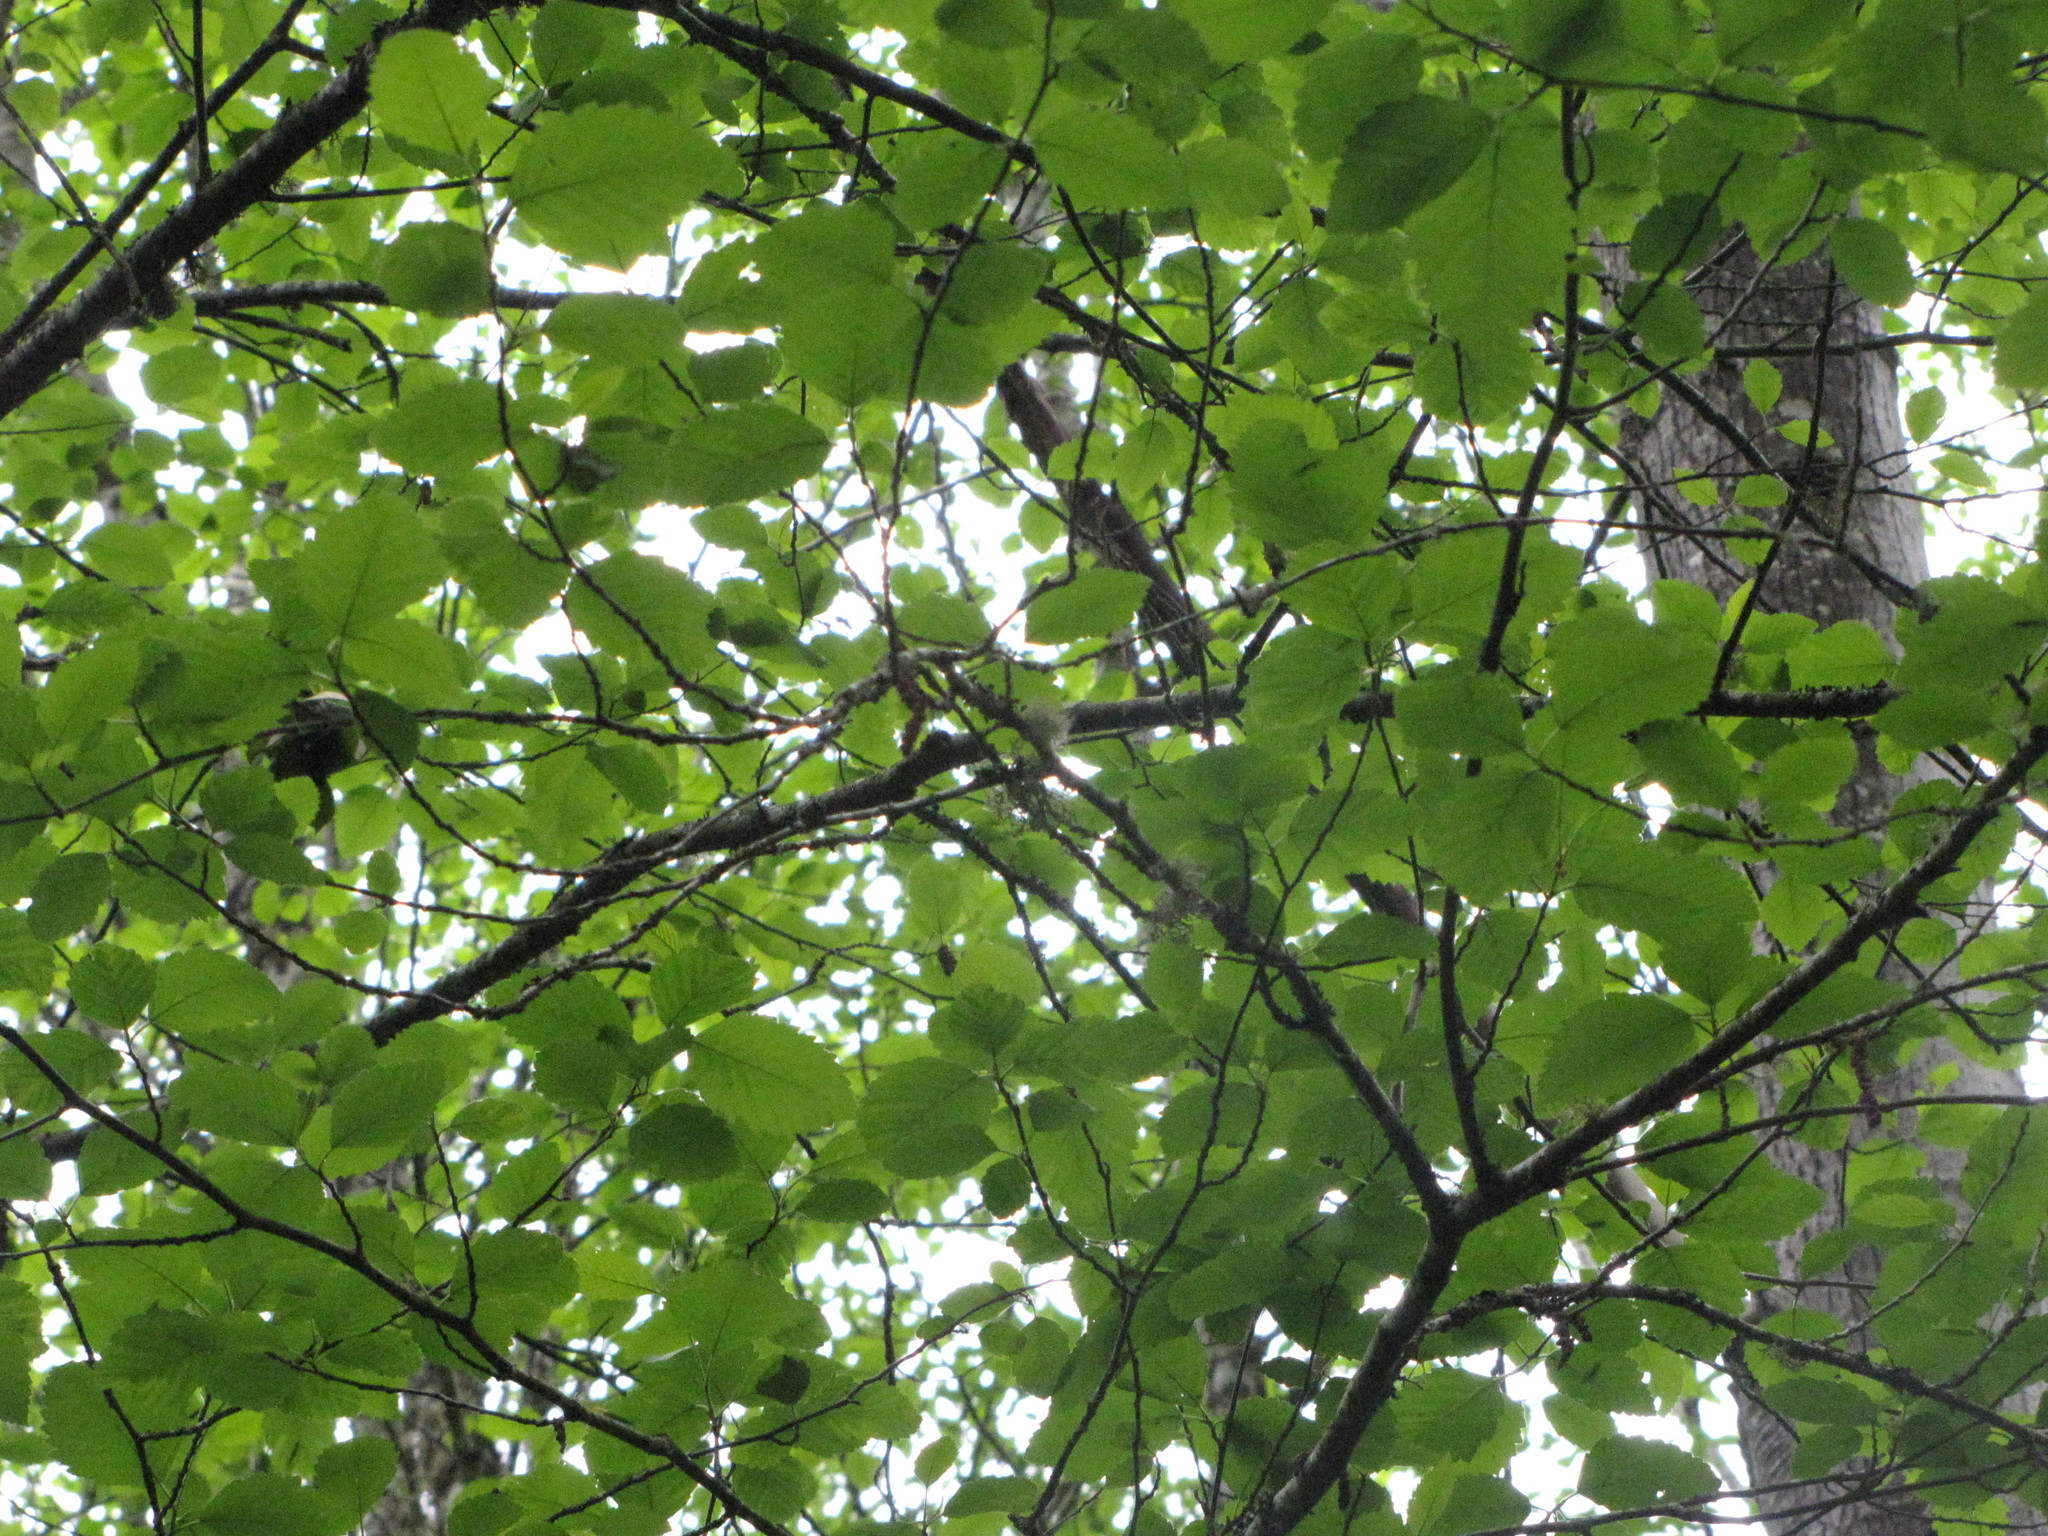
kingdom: Plantae
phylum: Tracheophyta
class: Magnoliopsida
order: Fagales
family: Betulaceae
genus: Alnus
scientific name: Alnus rubra
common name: Red alder
